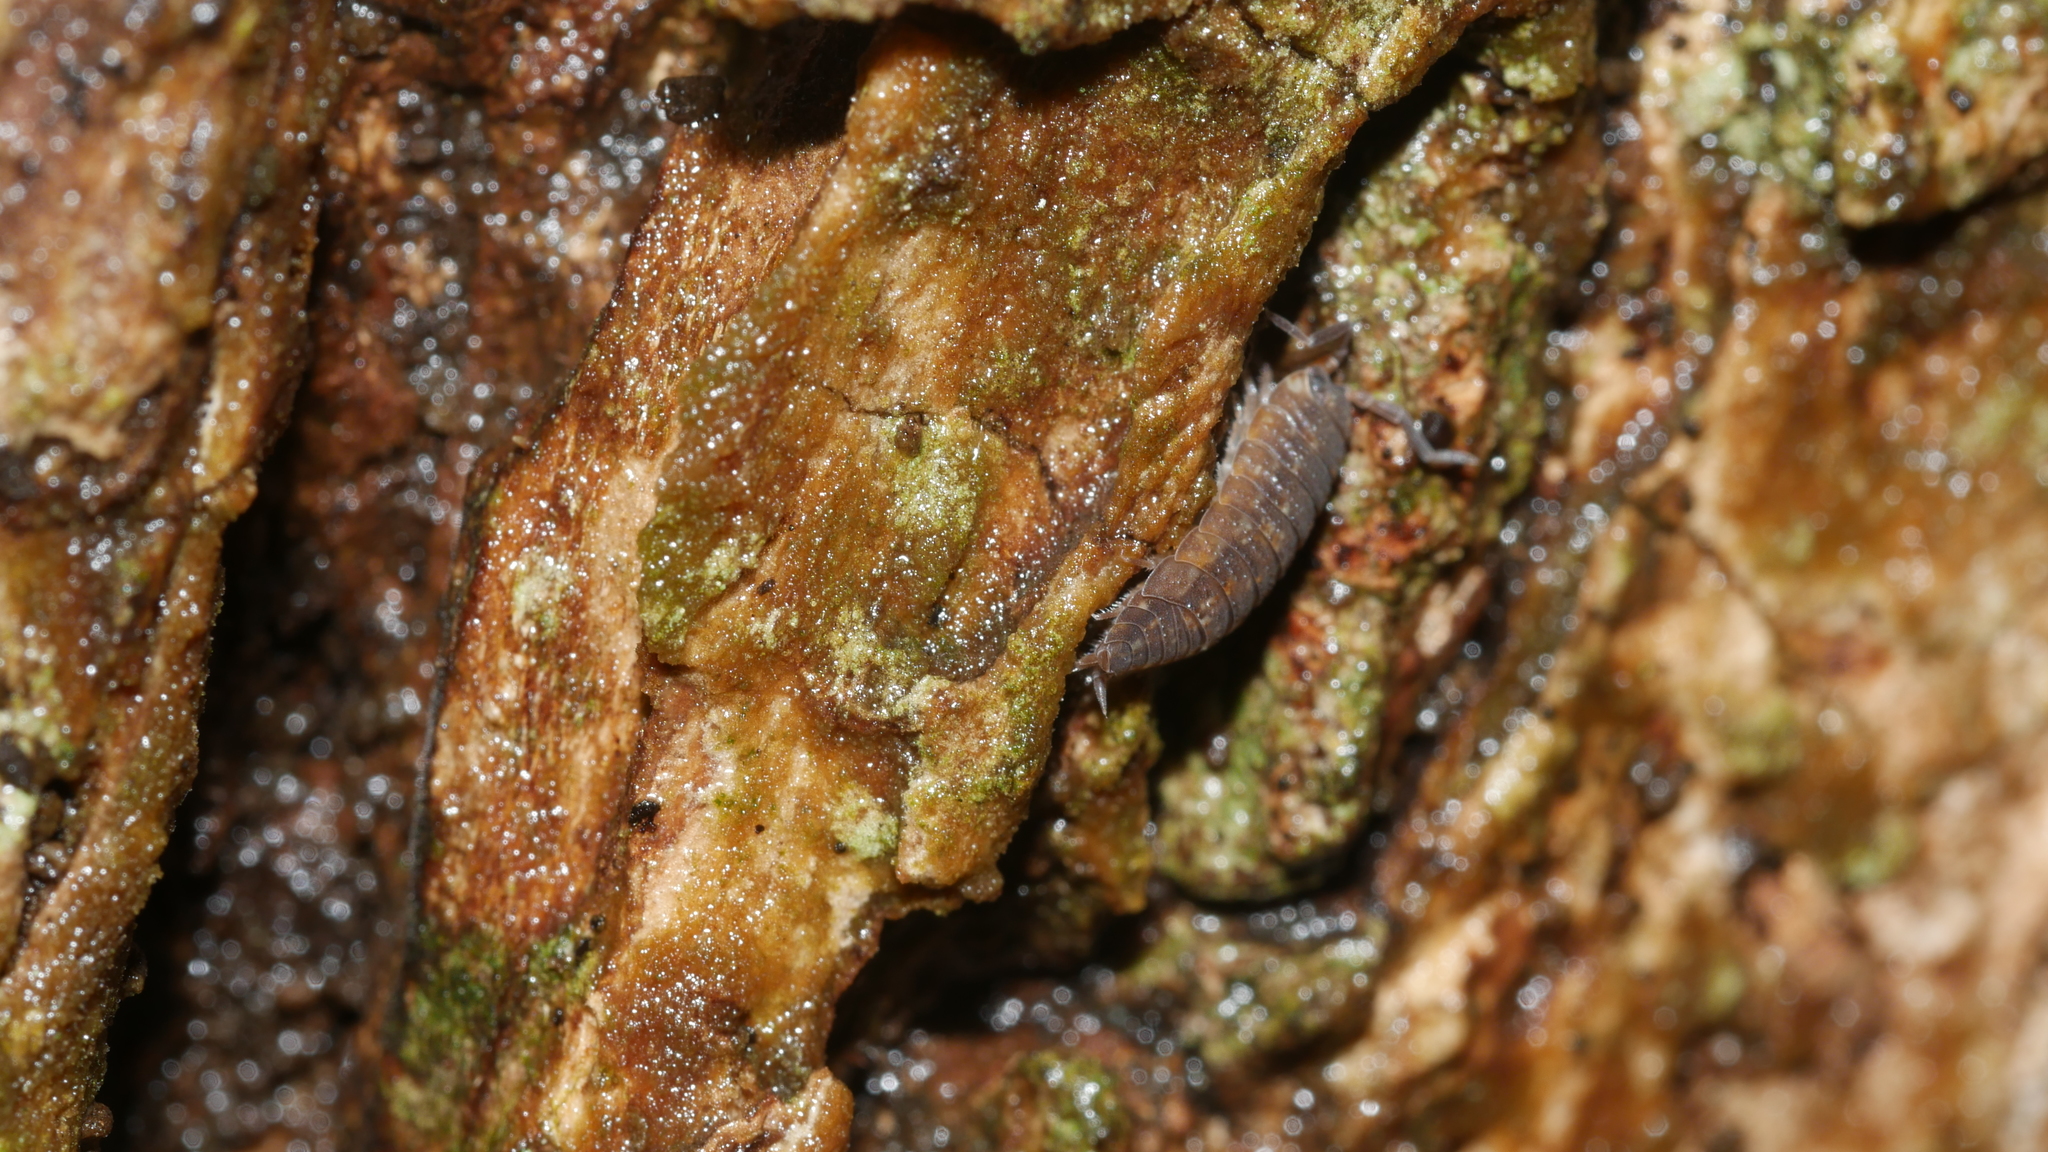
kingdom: Animalia
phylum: Arthropoda
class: Malacostraca
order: Isopoda
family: Porcellionidae
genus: Porcellio
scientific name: Porcellio scaber
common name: Common rough woodlouse
